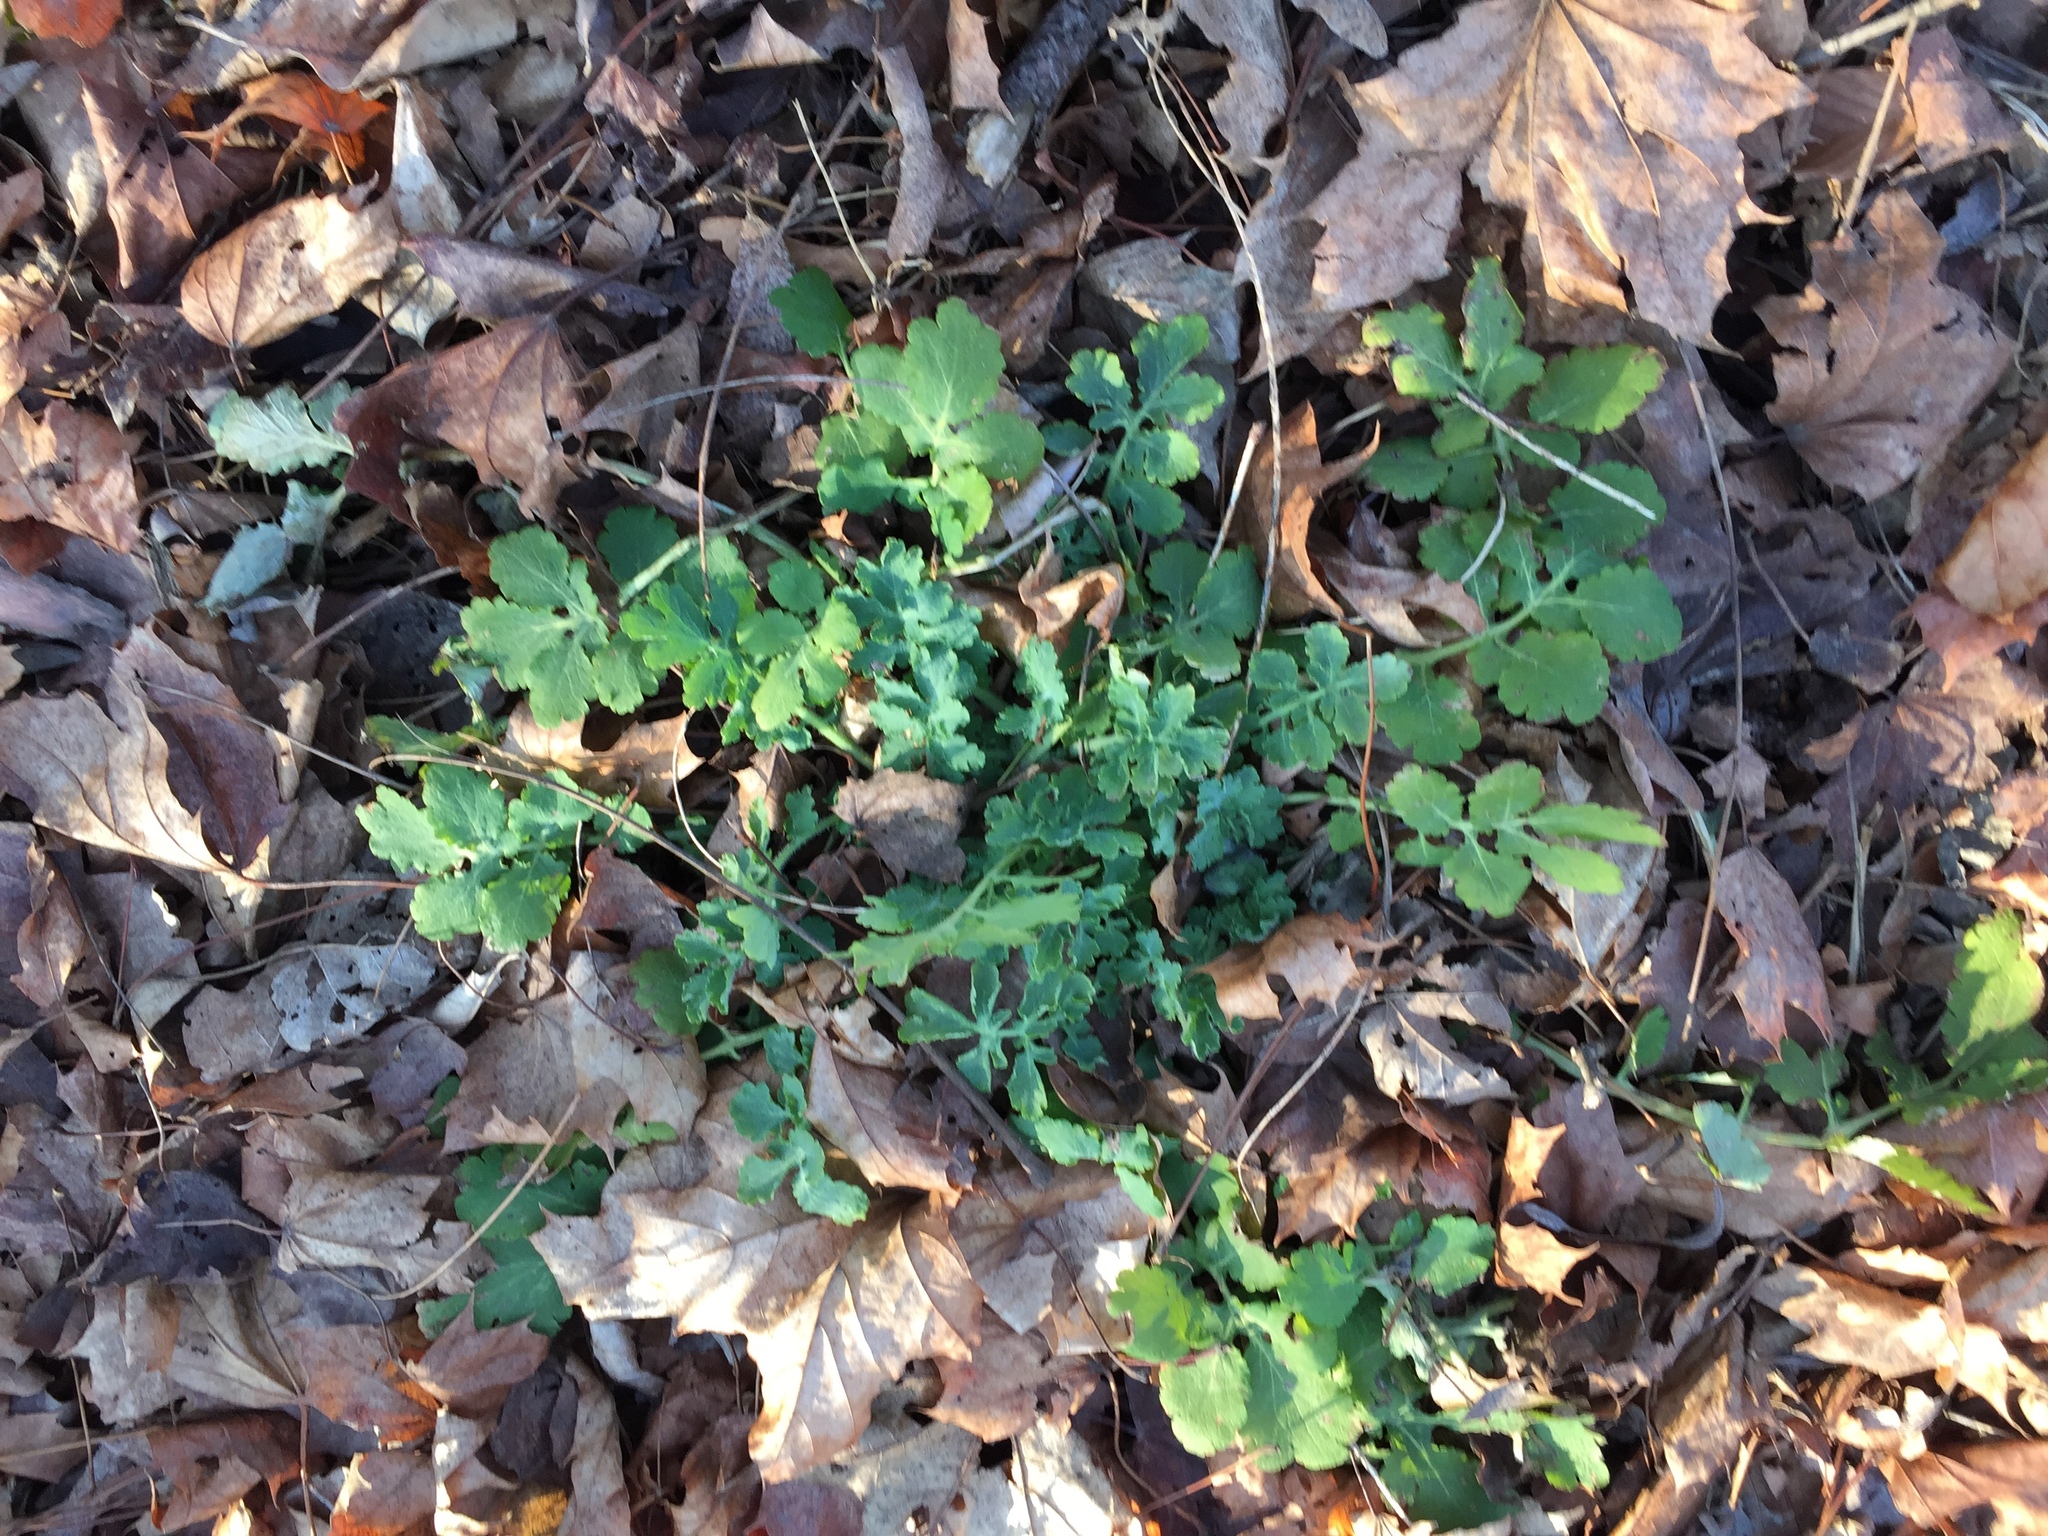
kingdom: Plantae
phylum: Tracheophyta
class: Magnoliopsida
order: Ranunculales
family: Papaveraceae
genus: Chelidonium
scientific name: Chelidonium majus
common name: Greater celandine
